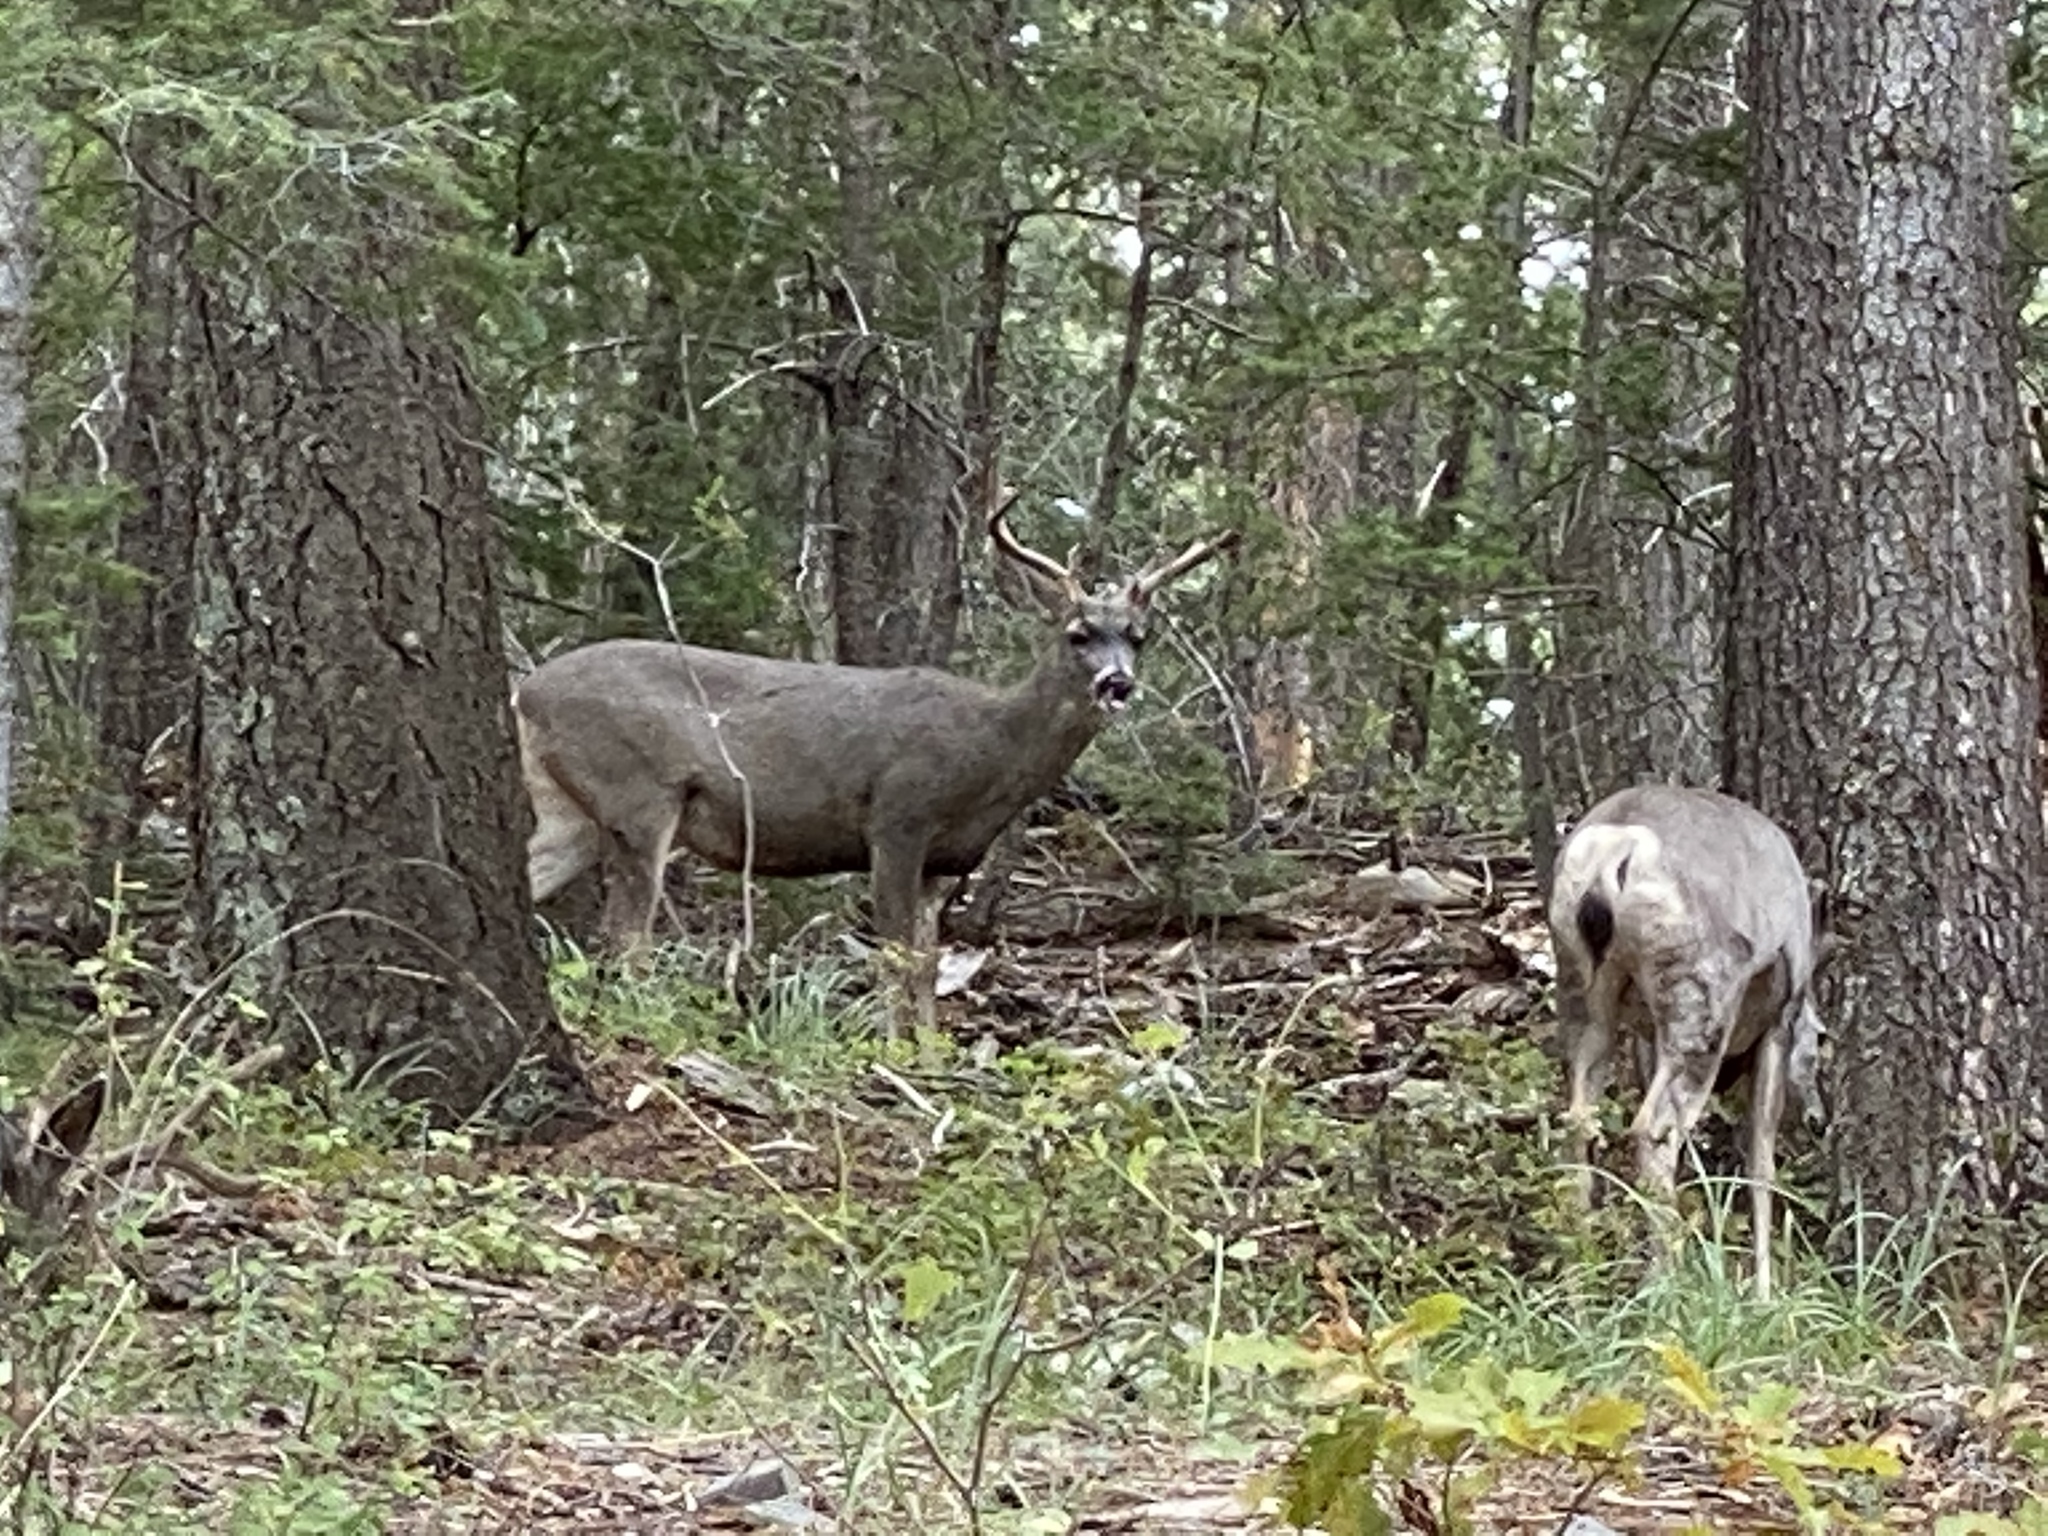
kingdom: Animalia
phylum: Chordata
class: Mammalia
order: Artiodactyla
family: Cervidae
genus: Odocoileus
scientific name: Odocoileus hemionus
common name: Mule deer
